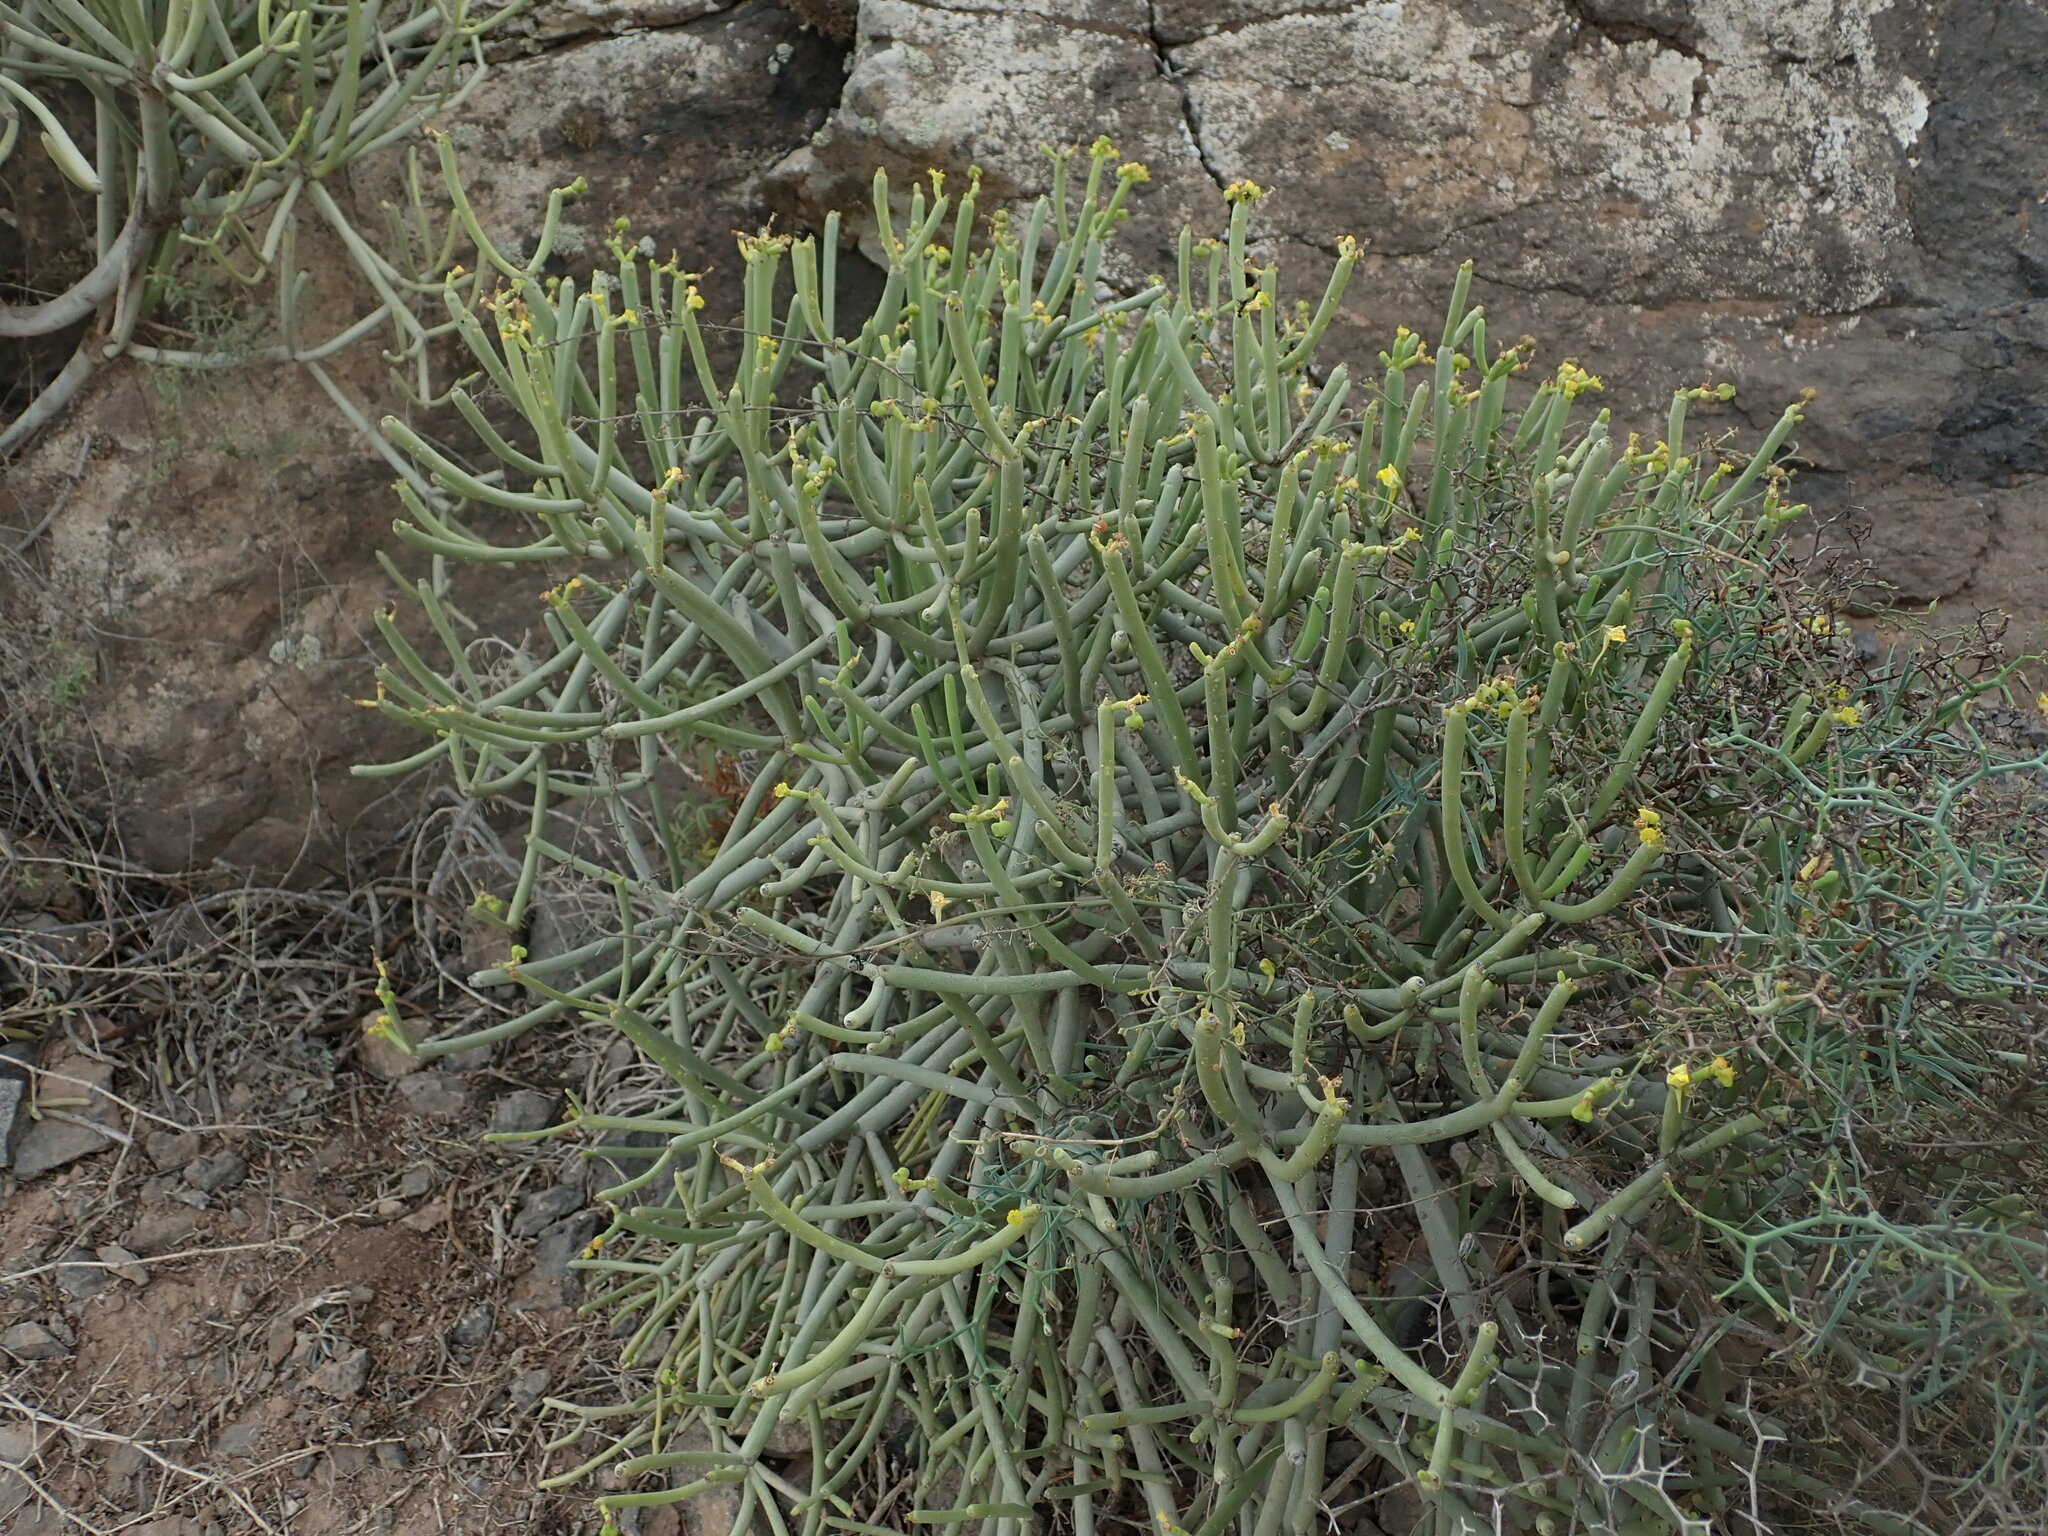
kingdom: Plantae
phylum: Tracheophyta
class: Magnoliopsida
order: Malpighiales
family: Euphorbiaceae
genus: Euphorbia
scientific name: Euphorbia aphylla
